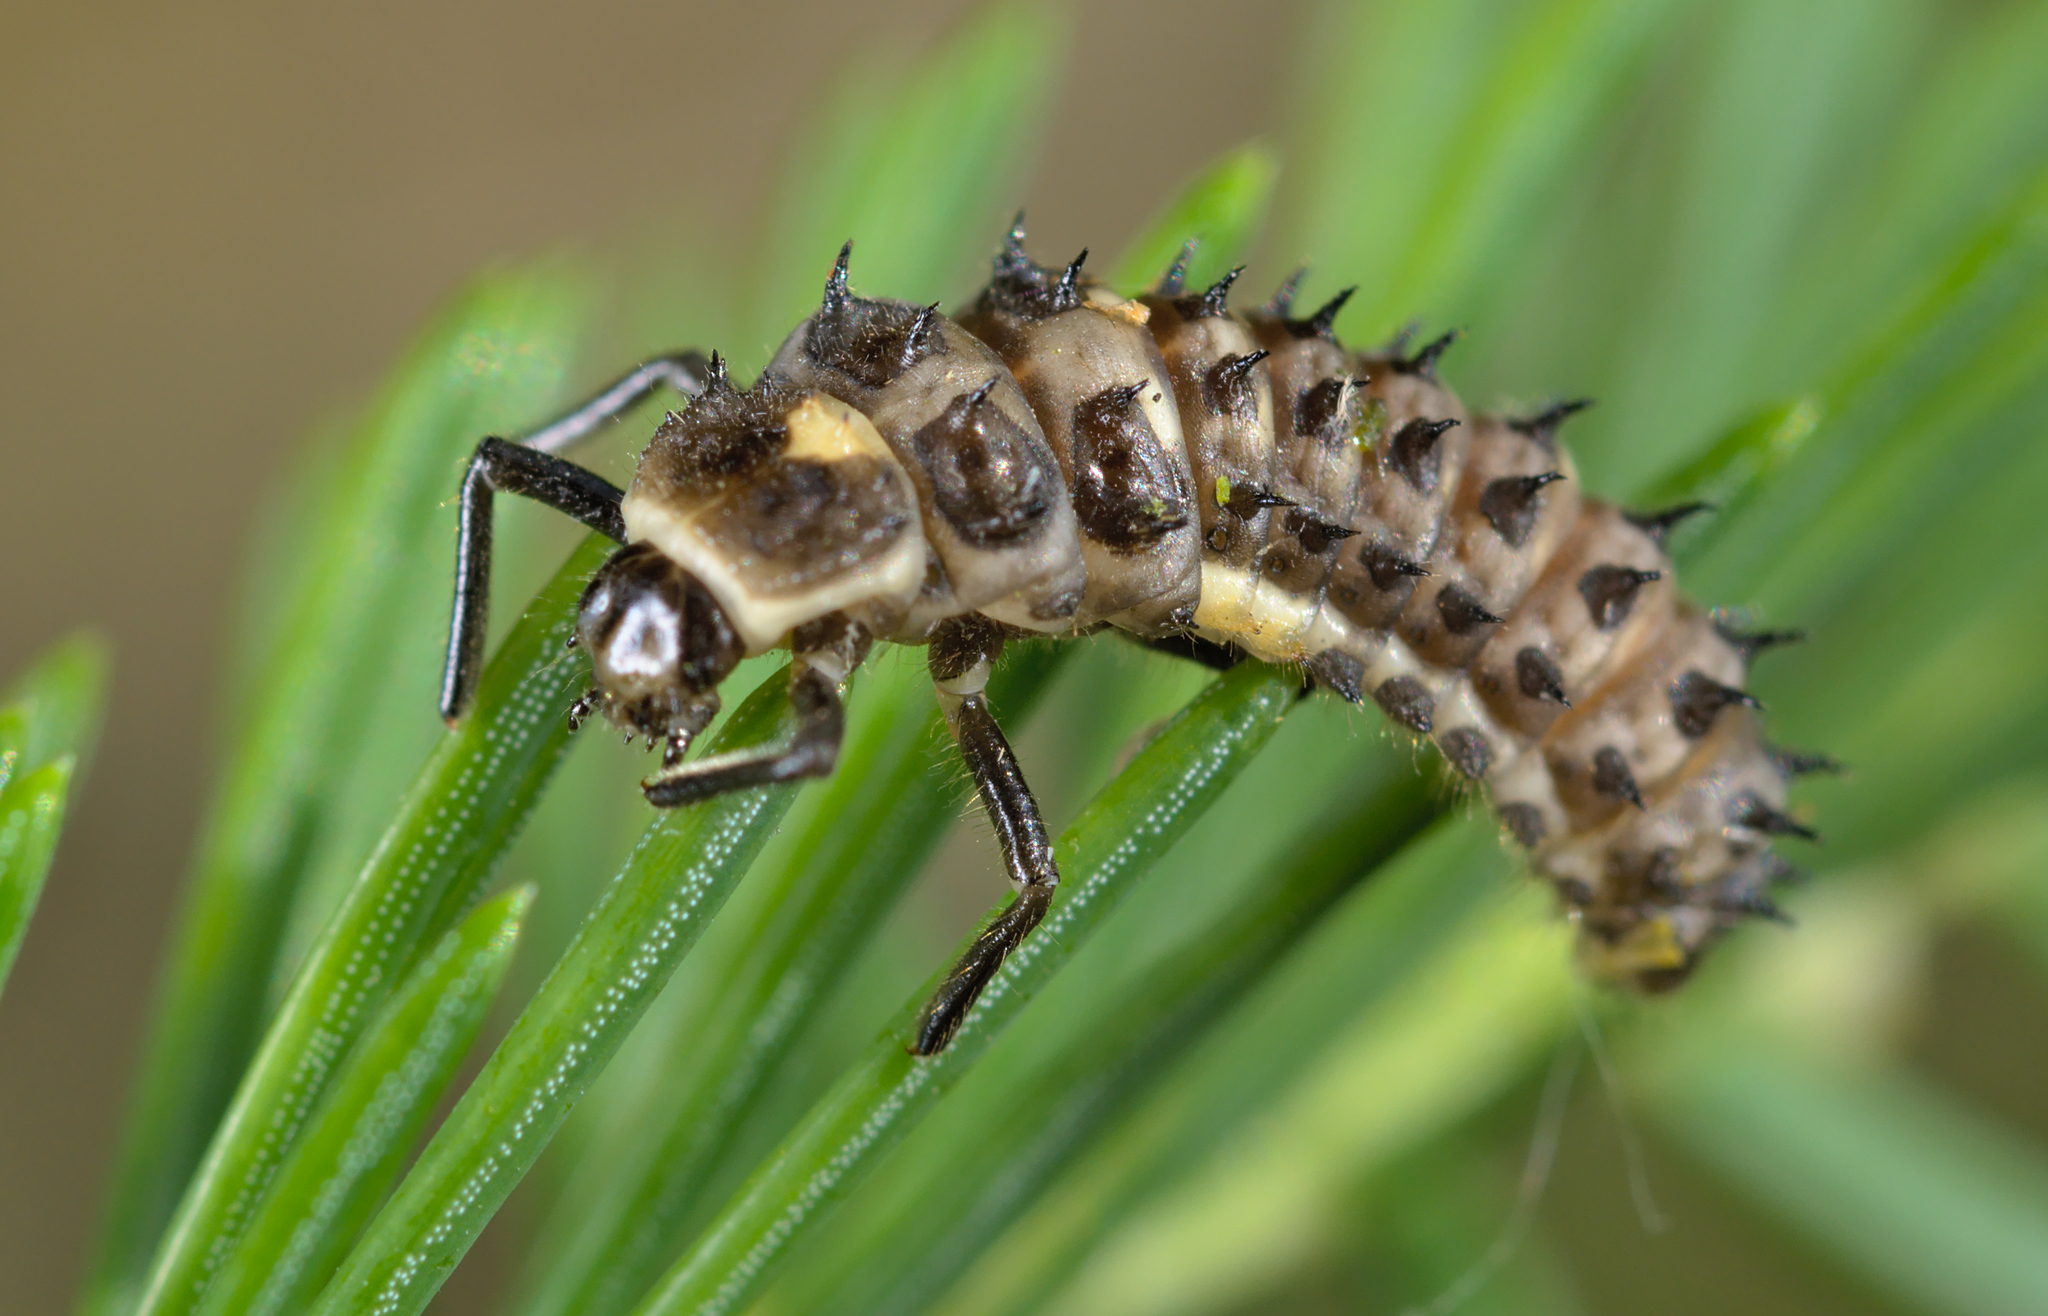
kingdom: Animalia
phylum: Arthropoda
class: Insecta
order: Coleoptera
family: Coccinellidae
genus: Anatis
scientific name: Anatis ocellata
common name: Eyed ladybird
